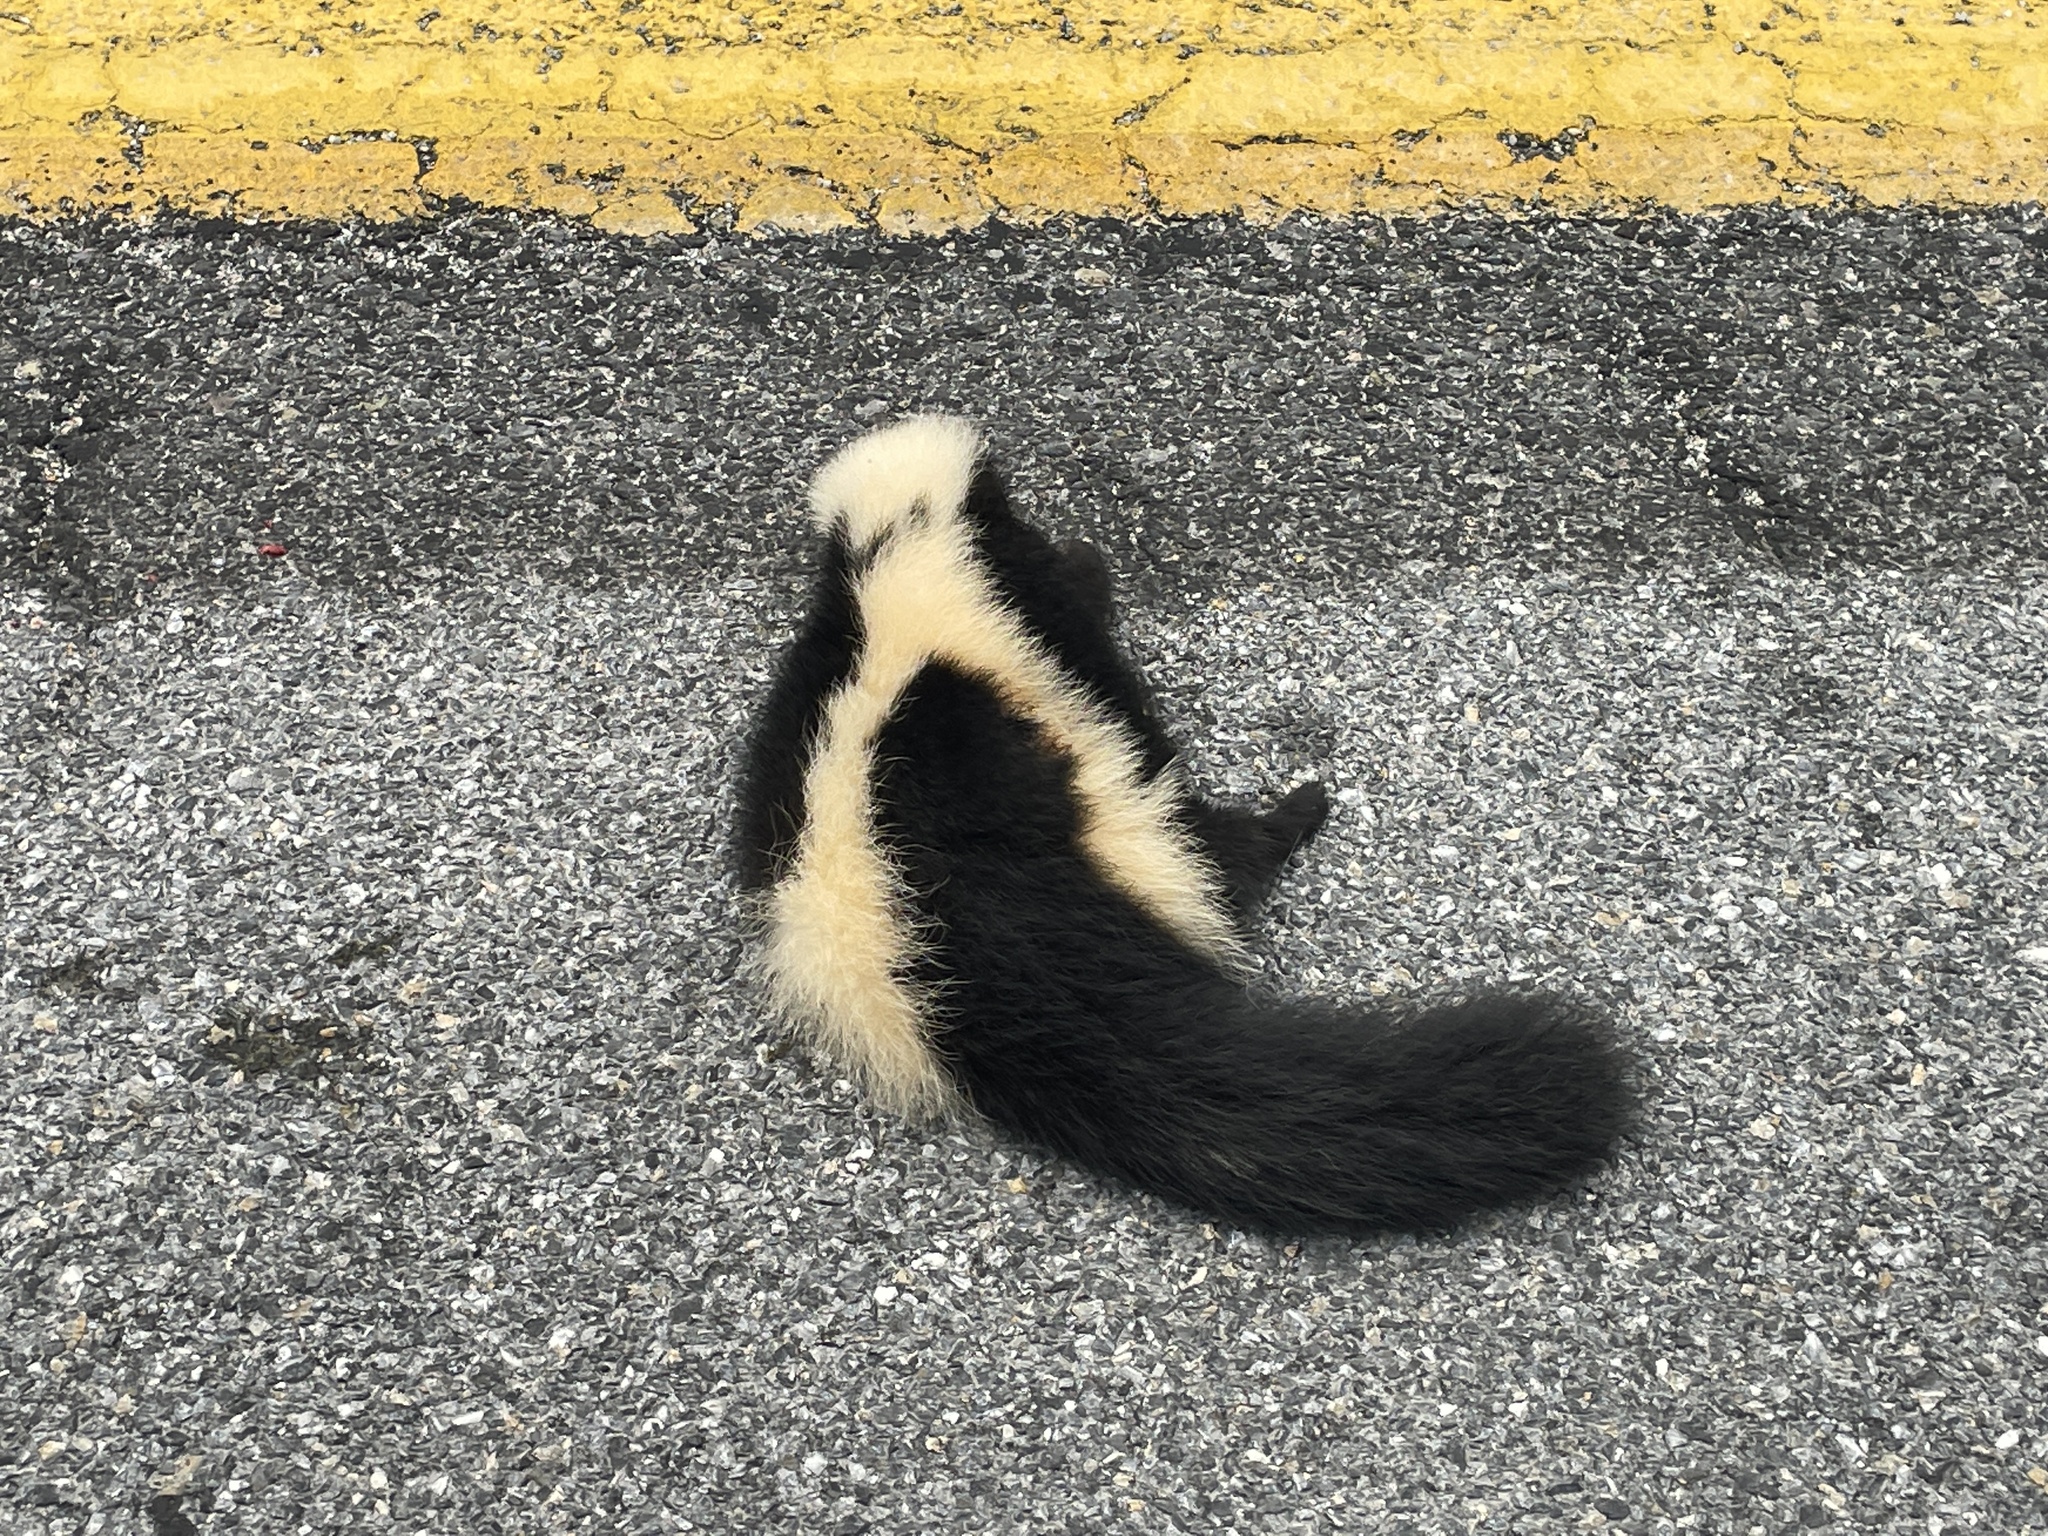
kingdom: Animalia
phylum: Chordata
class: Mammalia
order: Carnivora
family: Mephitidae
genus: Mephitis
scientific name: Mephitis mephitis
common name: Striped skunk
